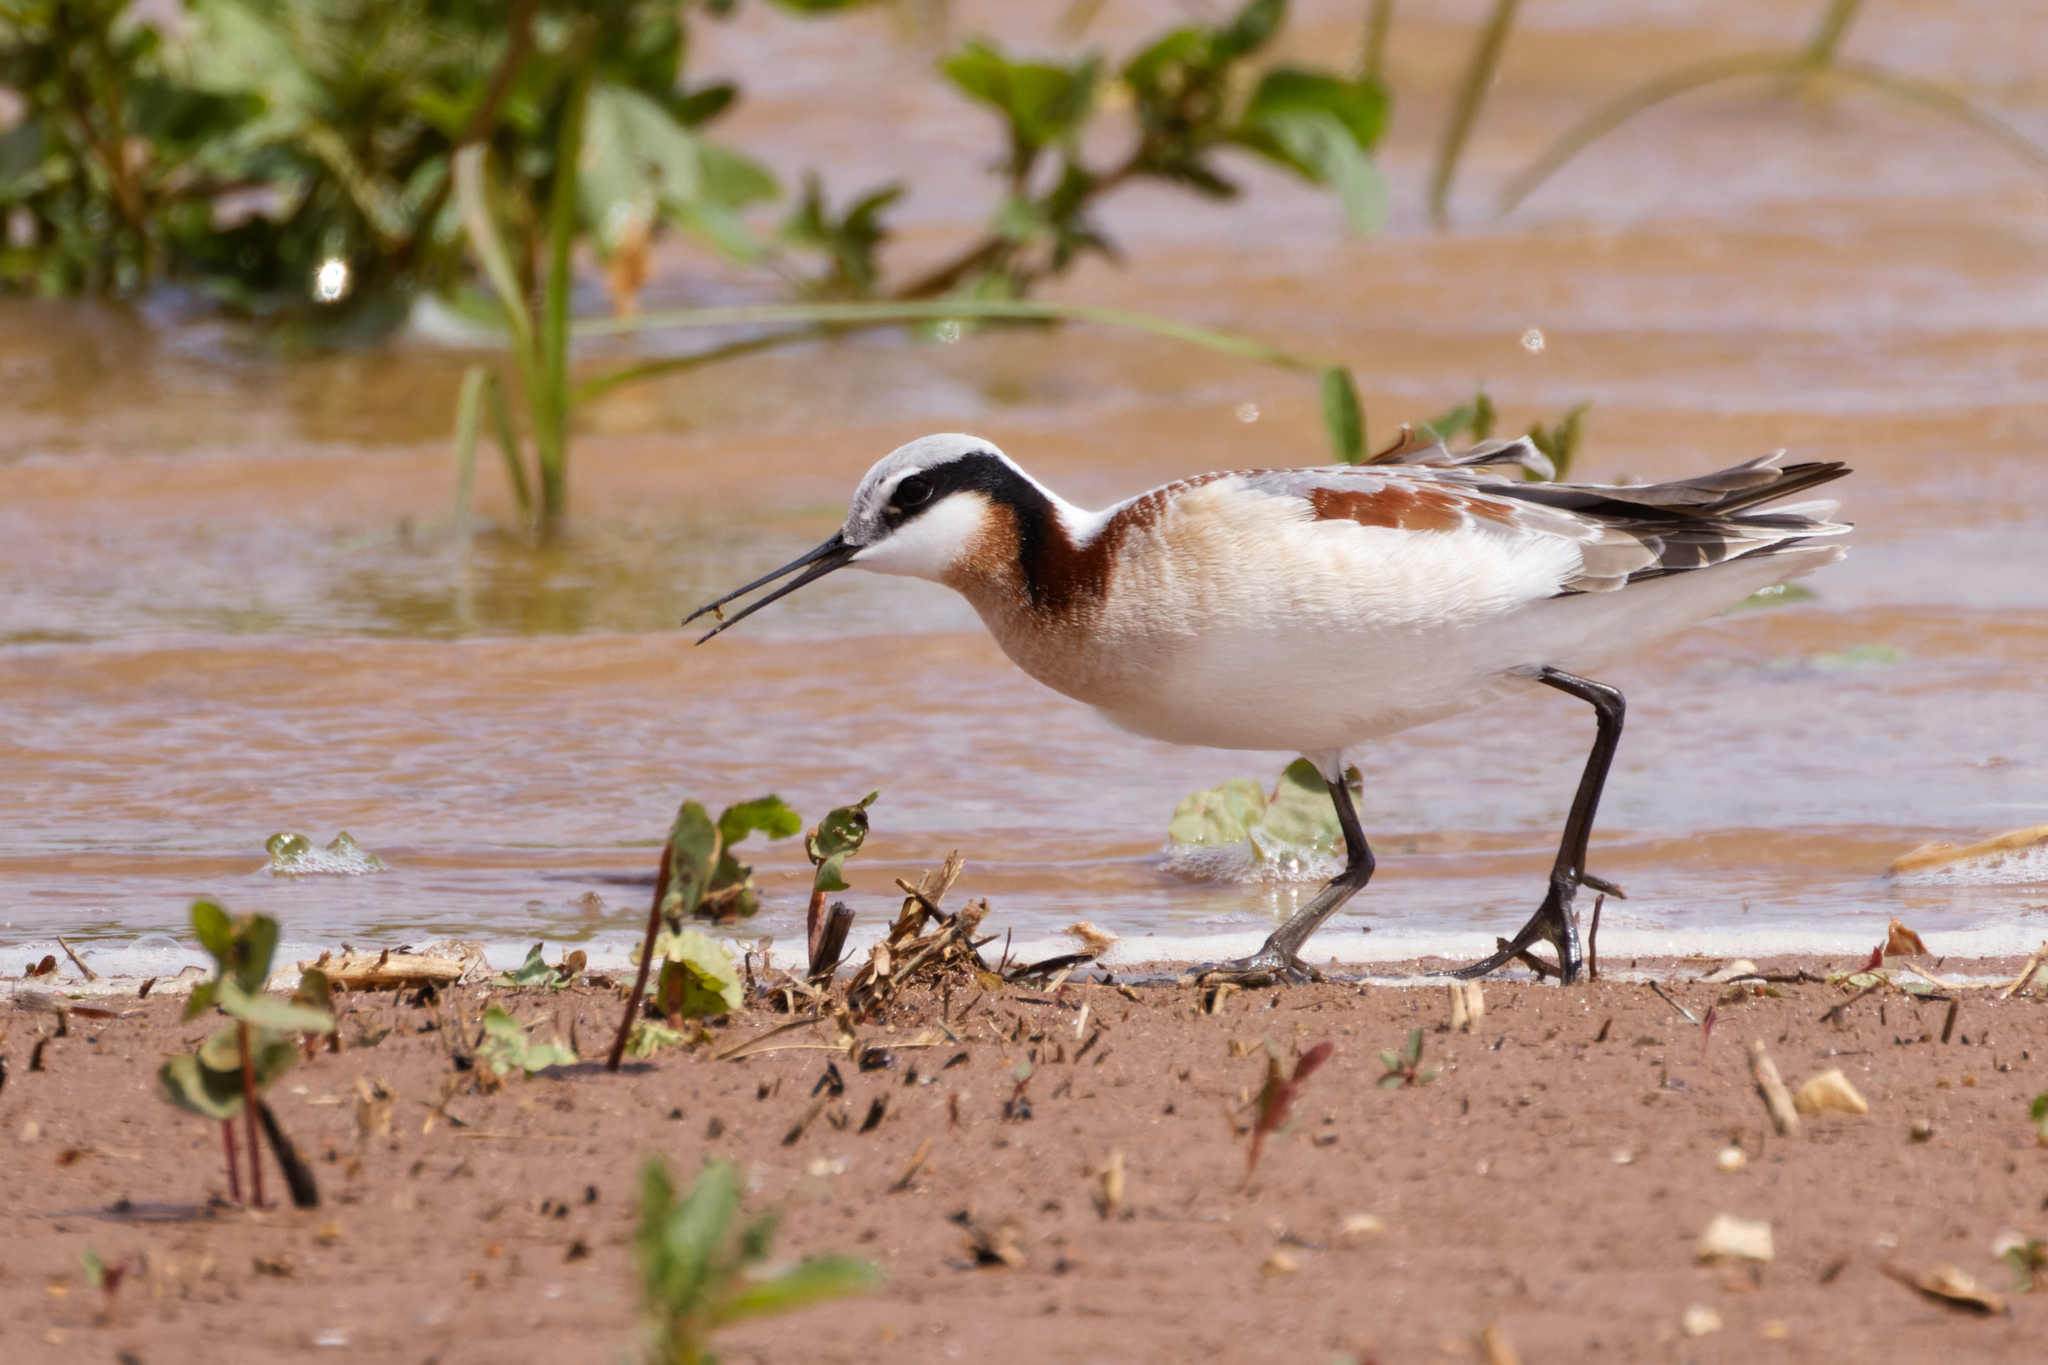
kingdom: Animalia
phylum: Chordata
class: Aves
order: Charadriiformes
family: Scolopacidae
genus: Phalaropus
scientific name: Phalaropus tricolor
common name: Wilson's phalarope
